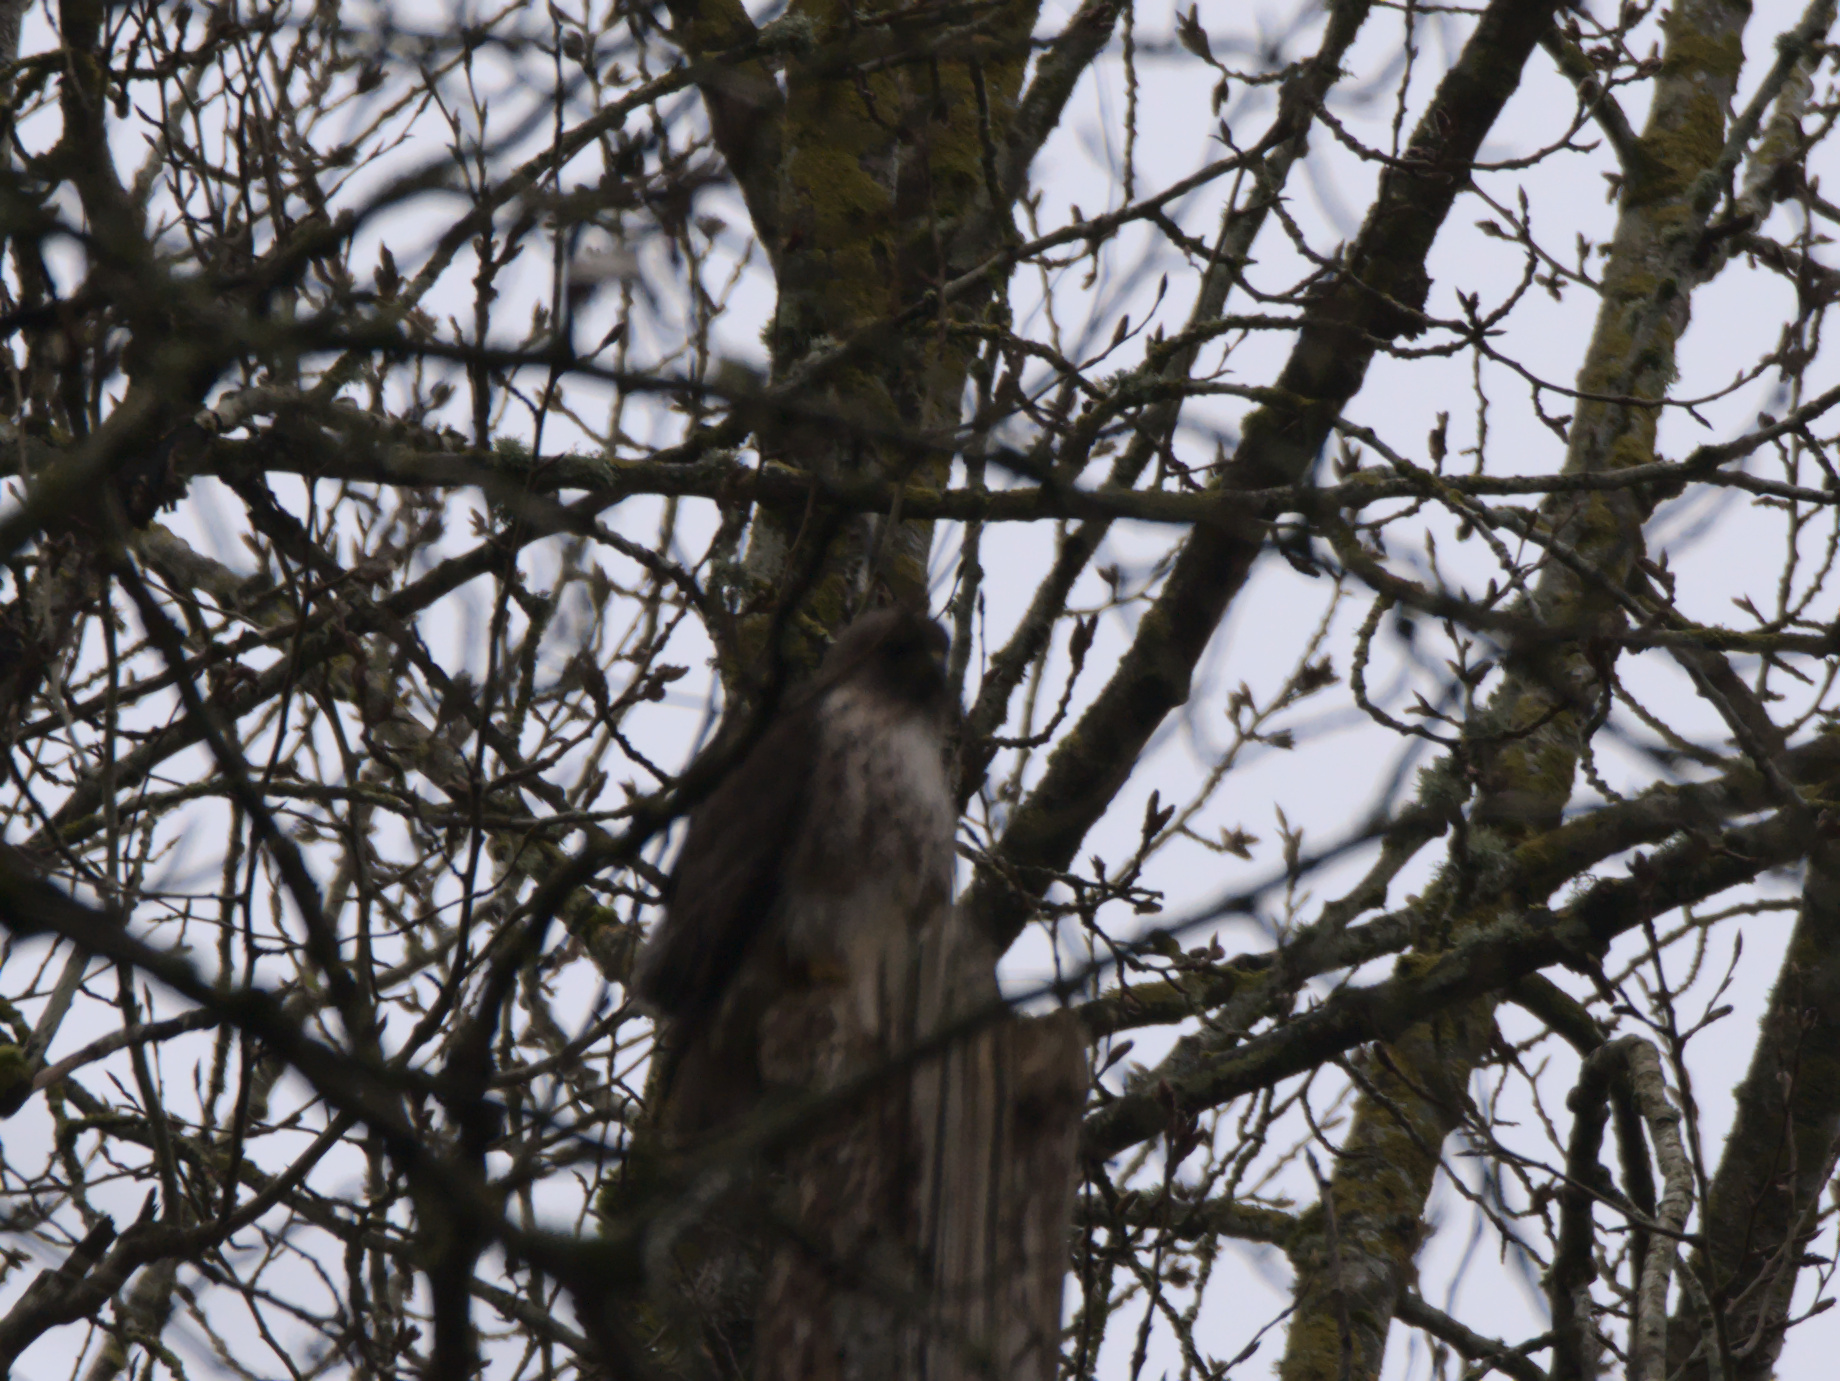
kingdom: Animalia
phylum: Chordata
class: Aves
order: Accipitriformes
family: Accipitridae
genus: Buteo
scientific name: Buteo jamaicensis
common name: Red-tailed hawk
